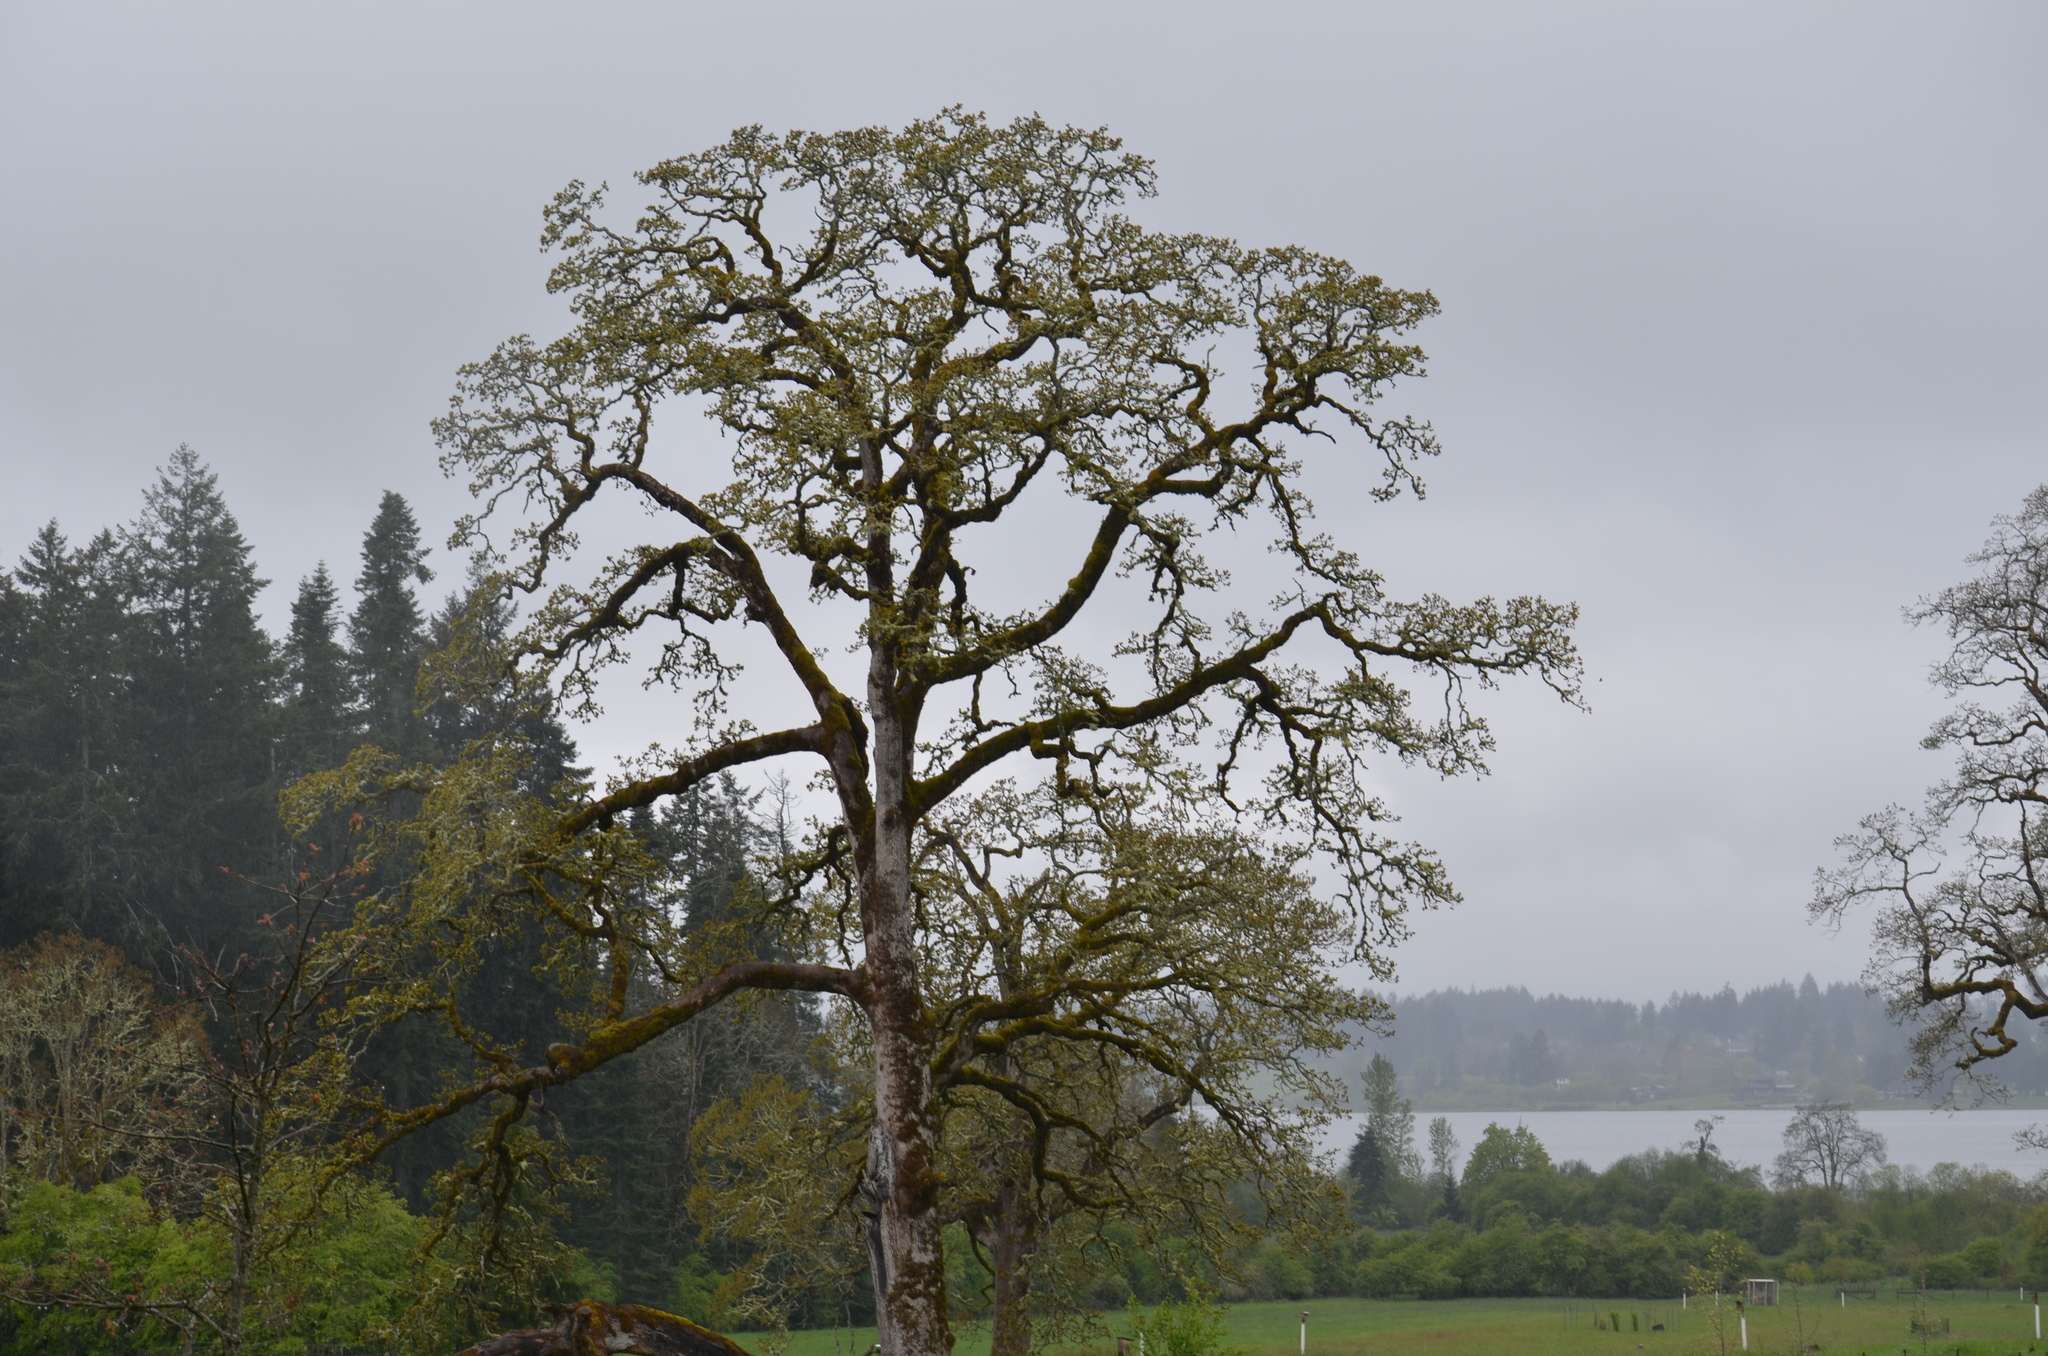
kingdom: Plantae
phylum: Tracheophyta
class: Magnoliopsida
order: Fagales
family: Fagaceae
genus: Quercus
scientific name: Quercus garryana
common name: Garry oak
